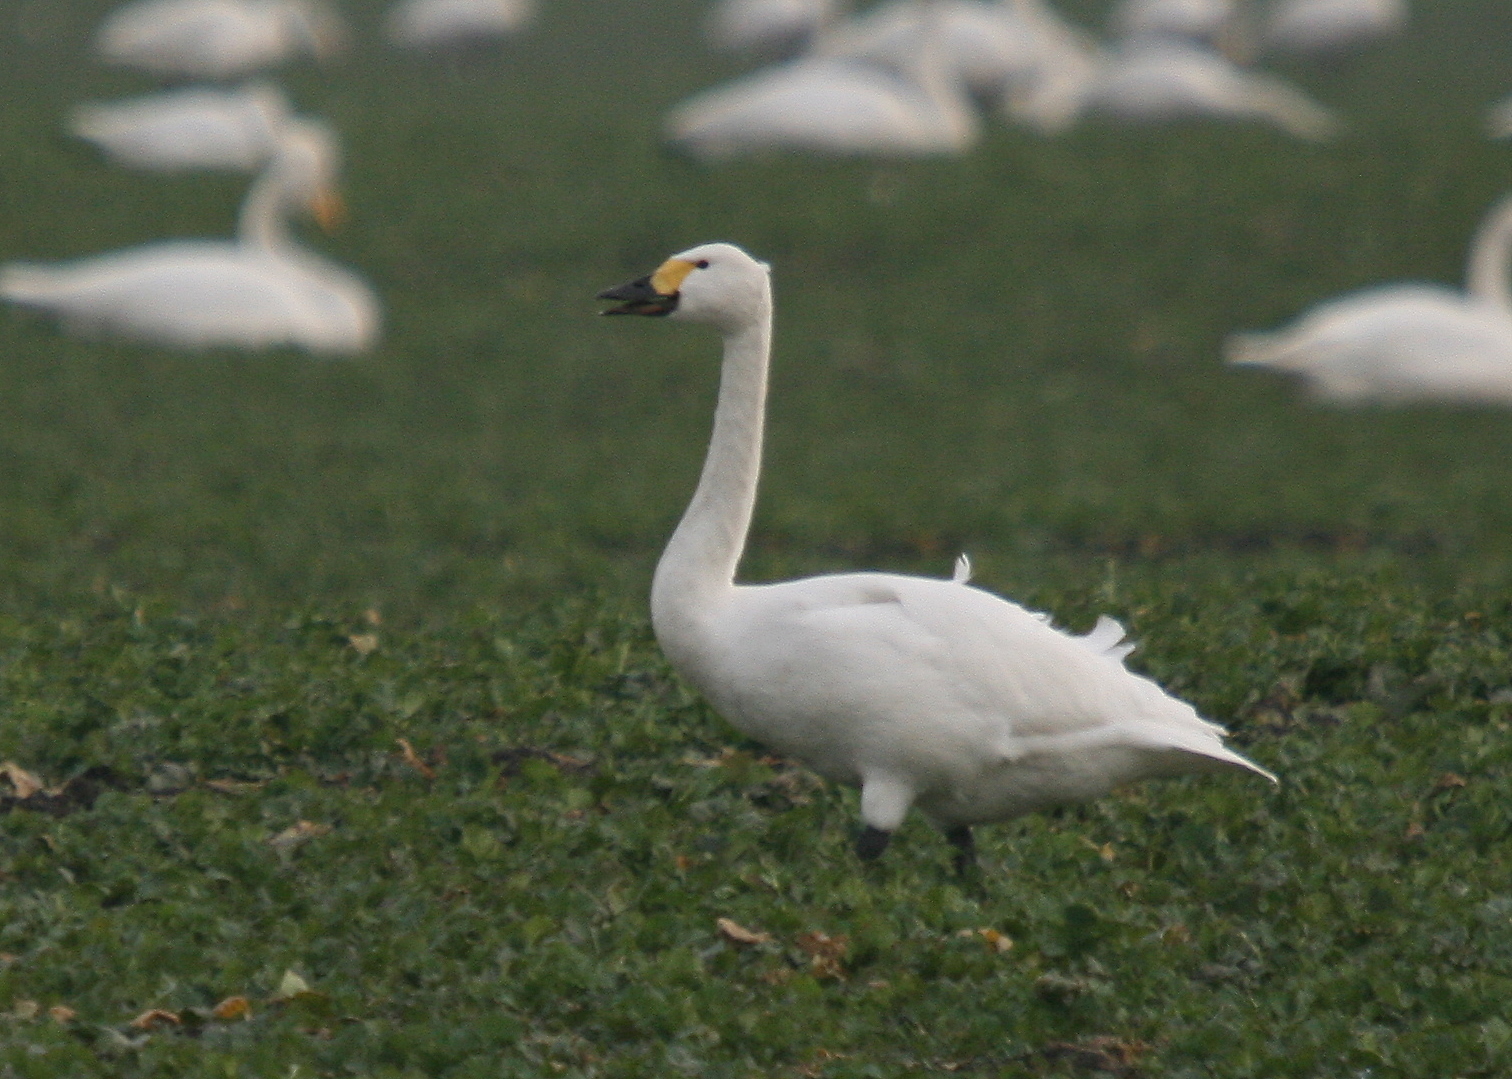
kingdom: Animalia
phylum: Chordata
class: Aves
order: Anseriformes
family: Anatidae
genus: Cygnus
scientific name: Cygnus columbianus
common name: Tundra swan
